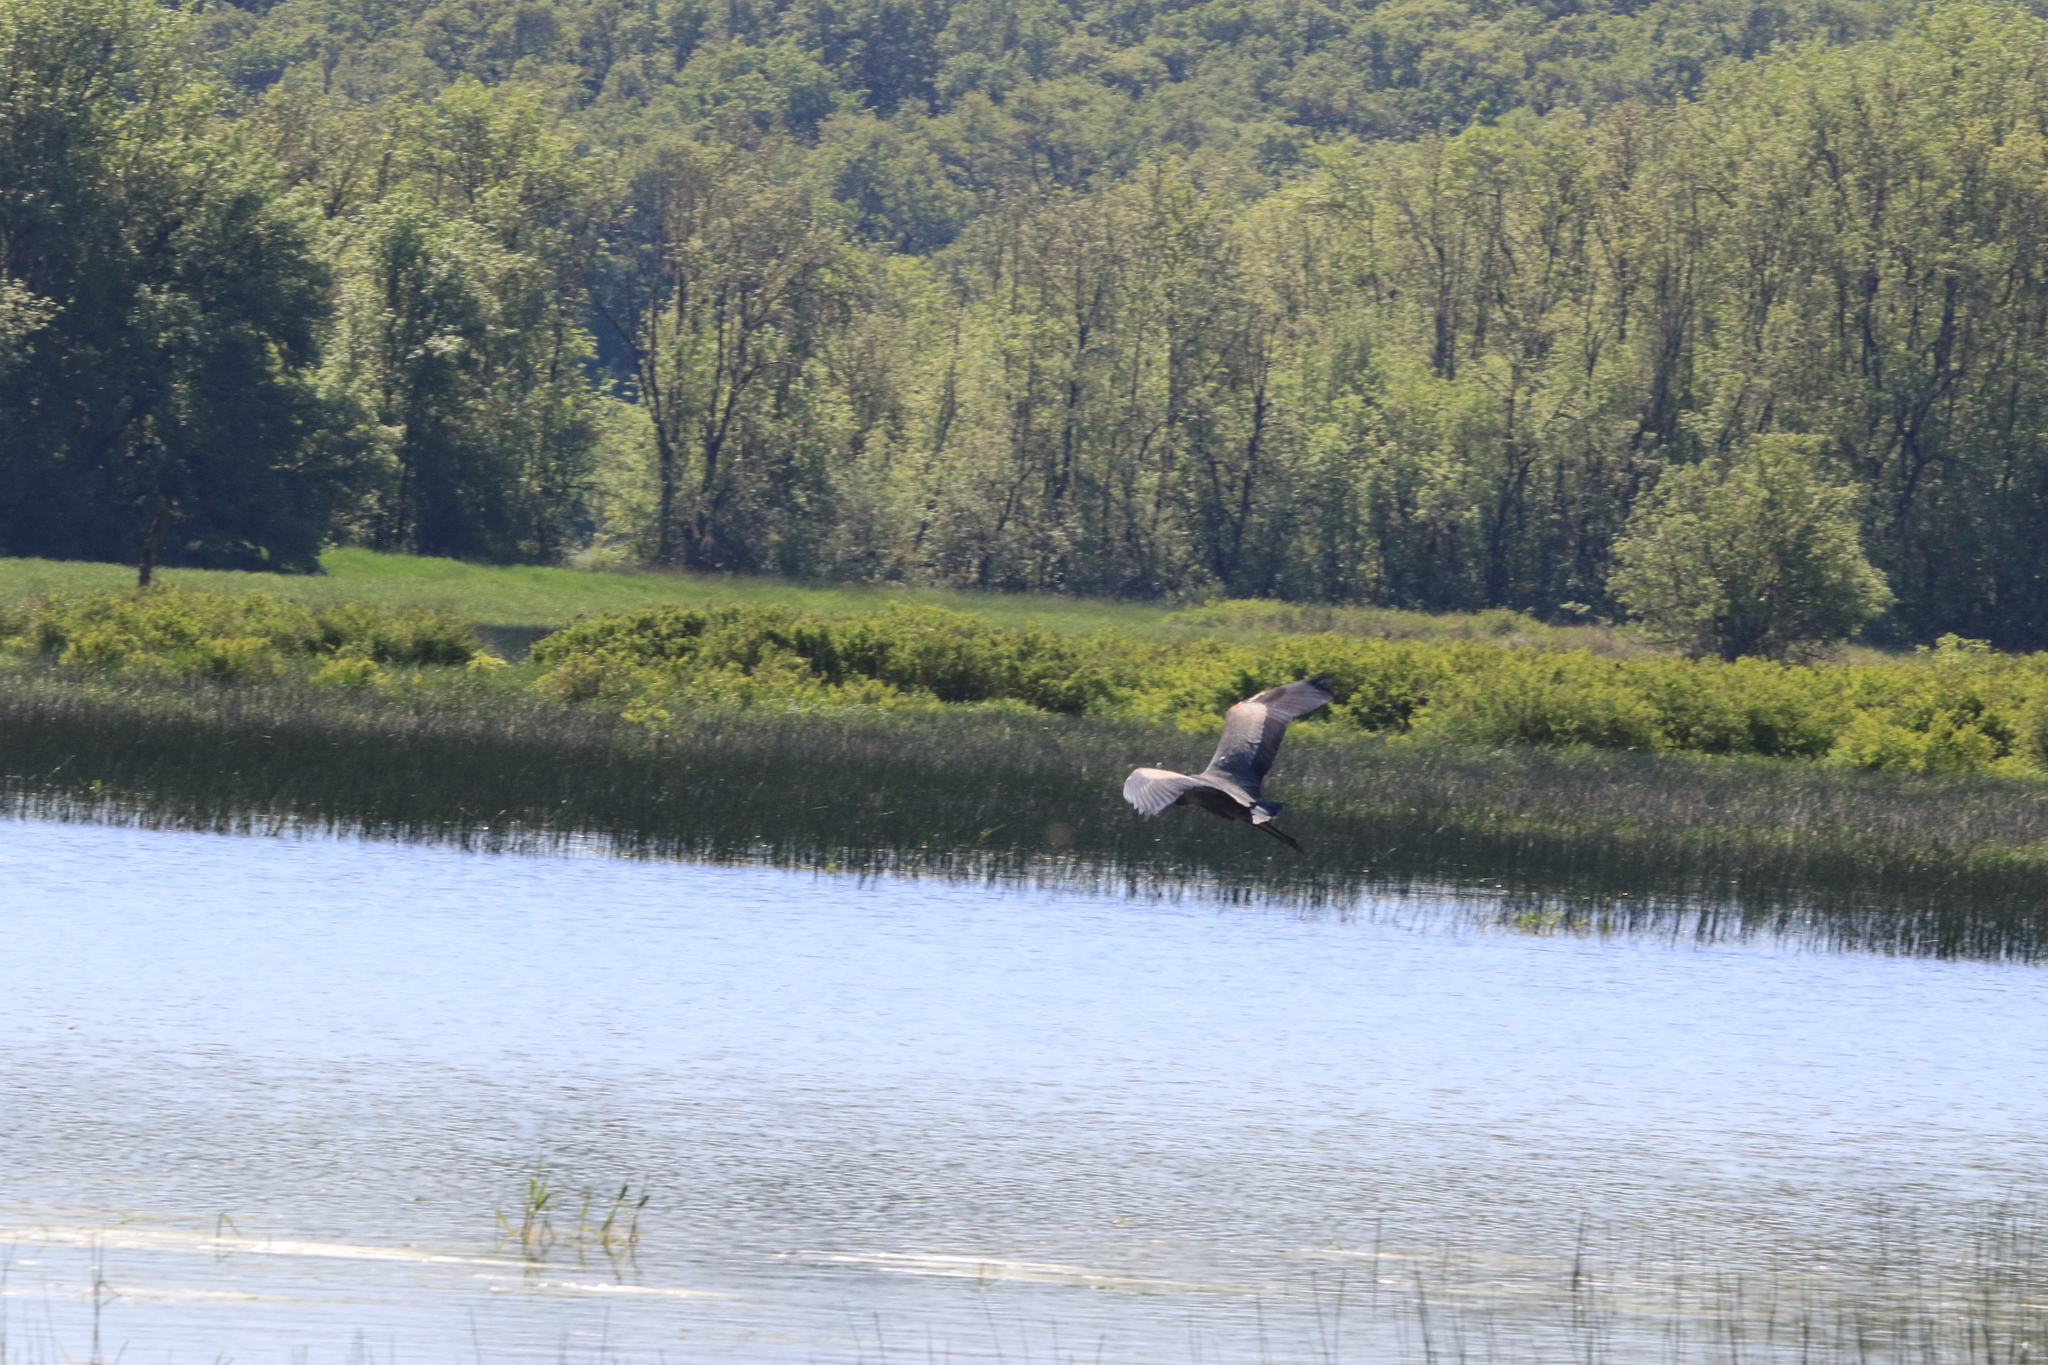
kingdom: Animalia
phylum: Chordata
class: Aves
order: Pelecaniformes
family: Ardeidae
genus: Ardea
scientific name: Ardea herodias
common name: Great blue heron
